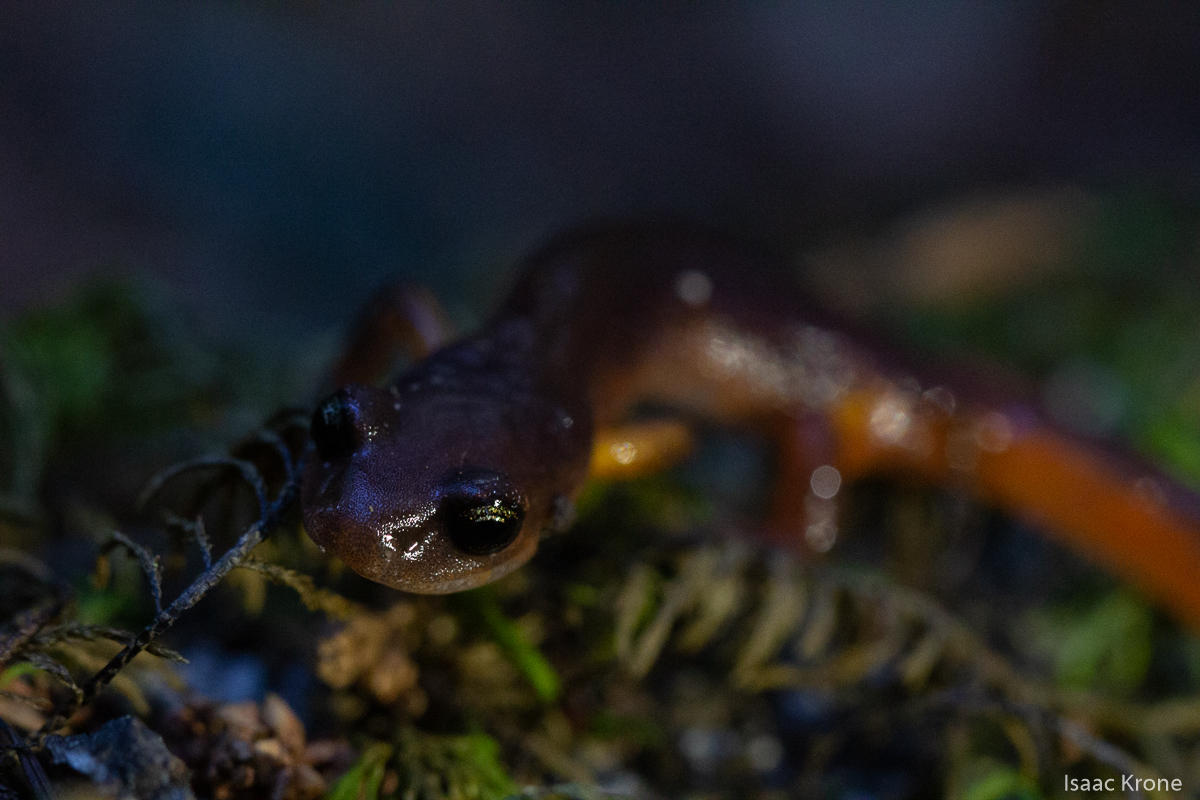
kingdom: Animalia
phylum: Chordata
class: Amphibia
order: Caudata
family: Plethodontidae
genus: Ensatina
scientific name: Ensatina eschscholtzii
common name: Ensatina
